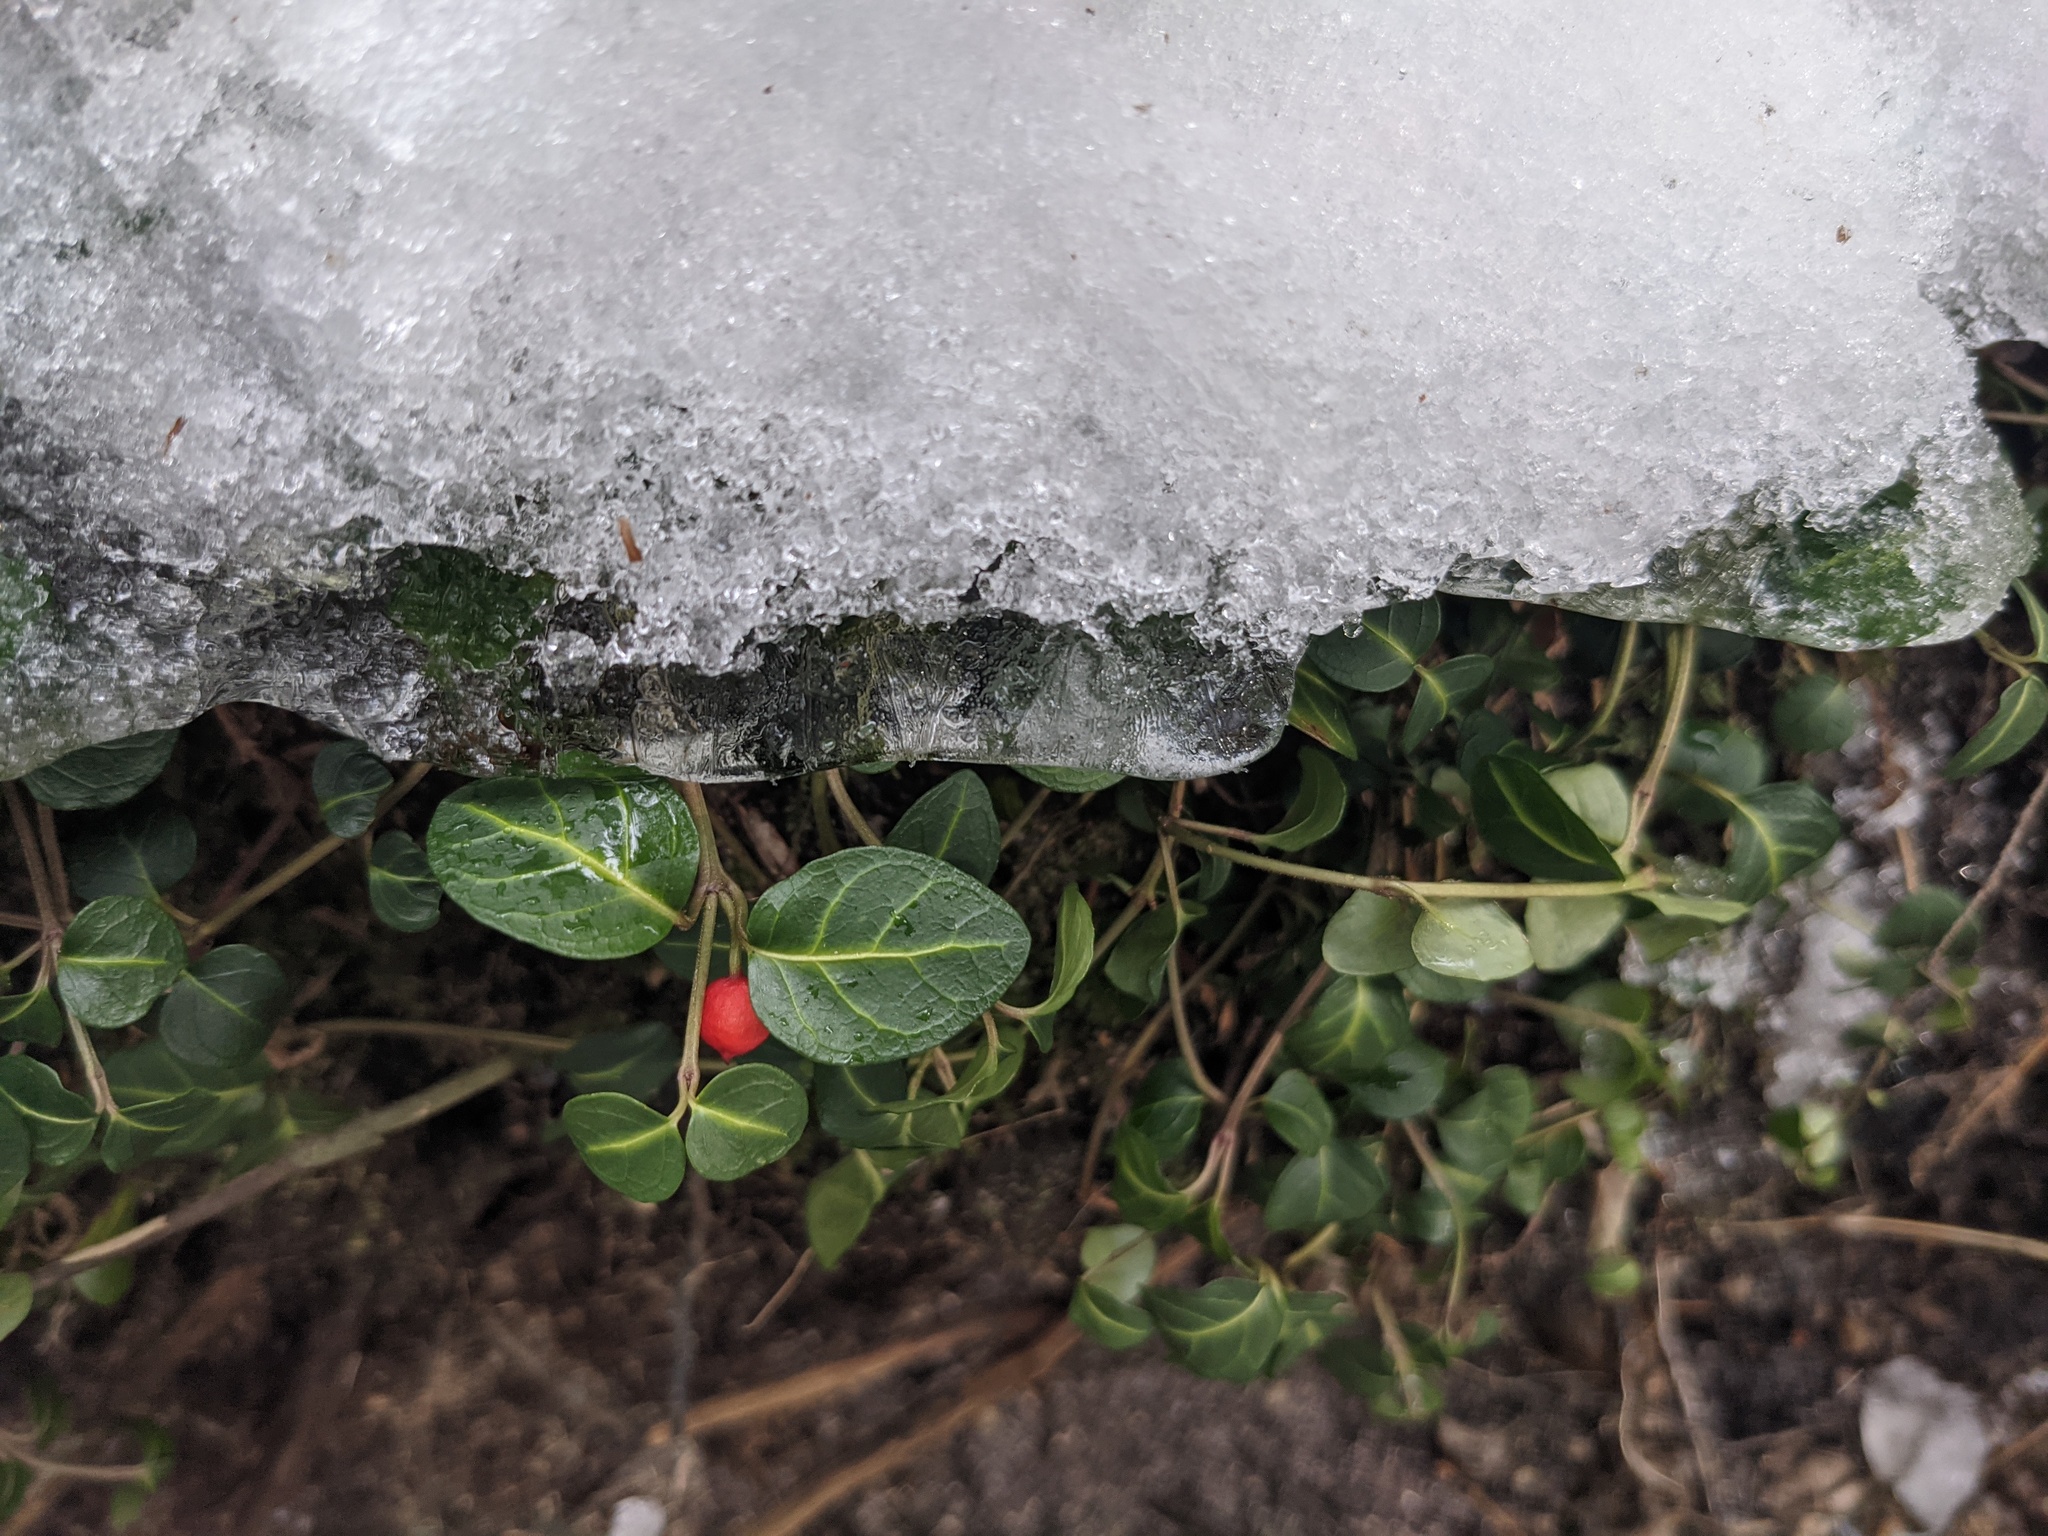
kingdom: Plantae
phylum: Tracheophyta
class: Magnoliopsida
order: Gentianales
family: Rubiaceae
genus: Mitchella
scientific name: Mitchella repens
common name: Partridge-berry
